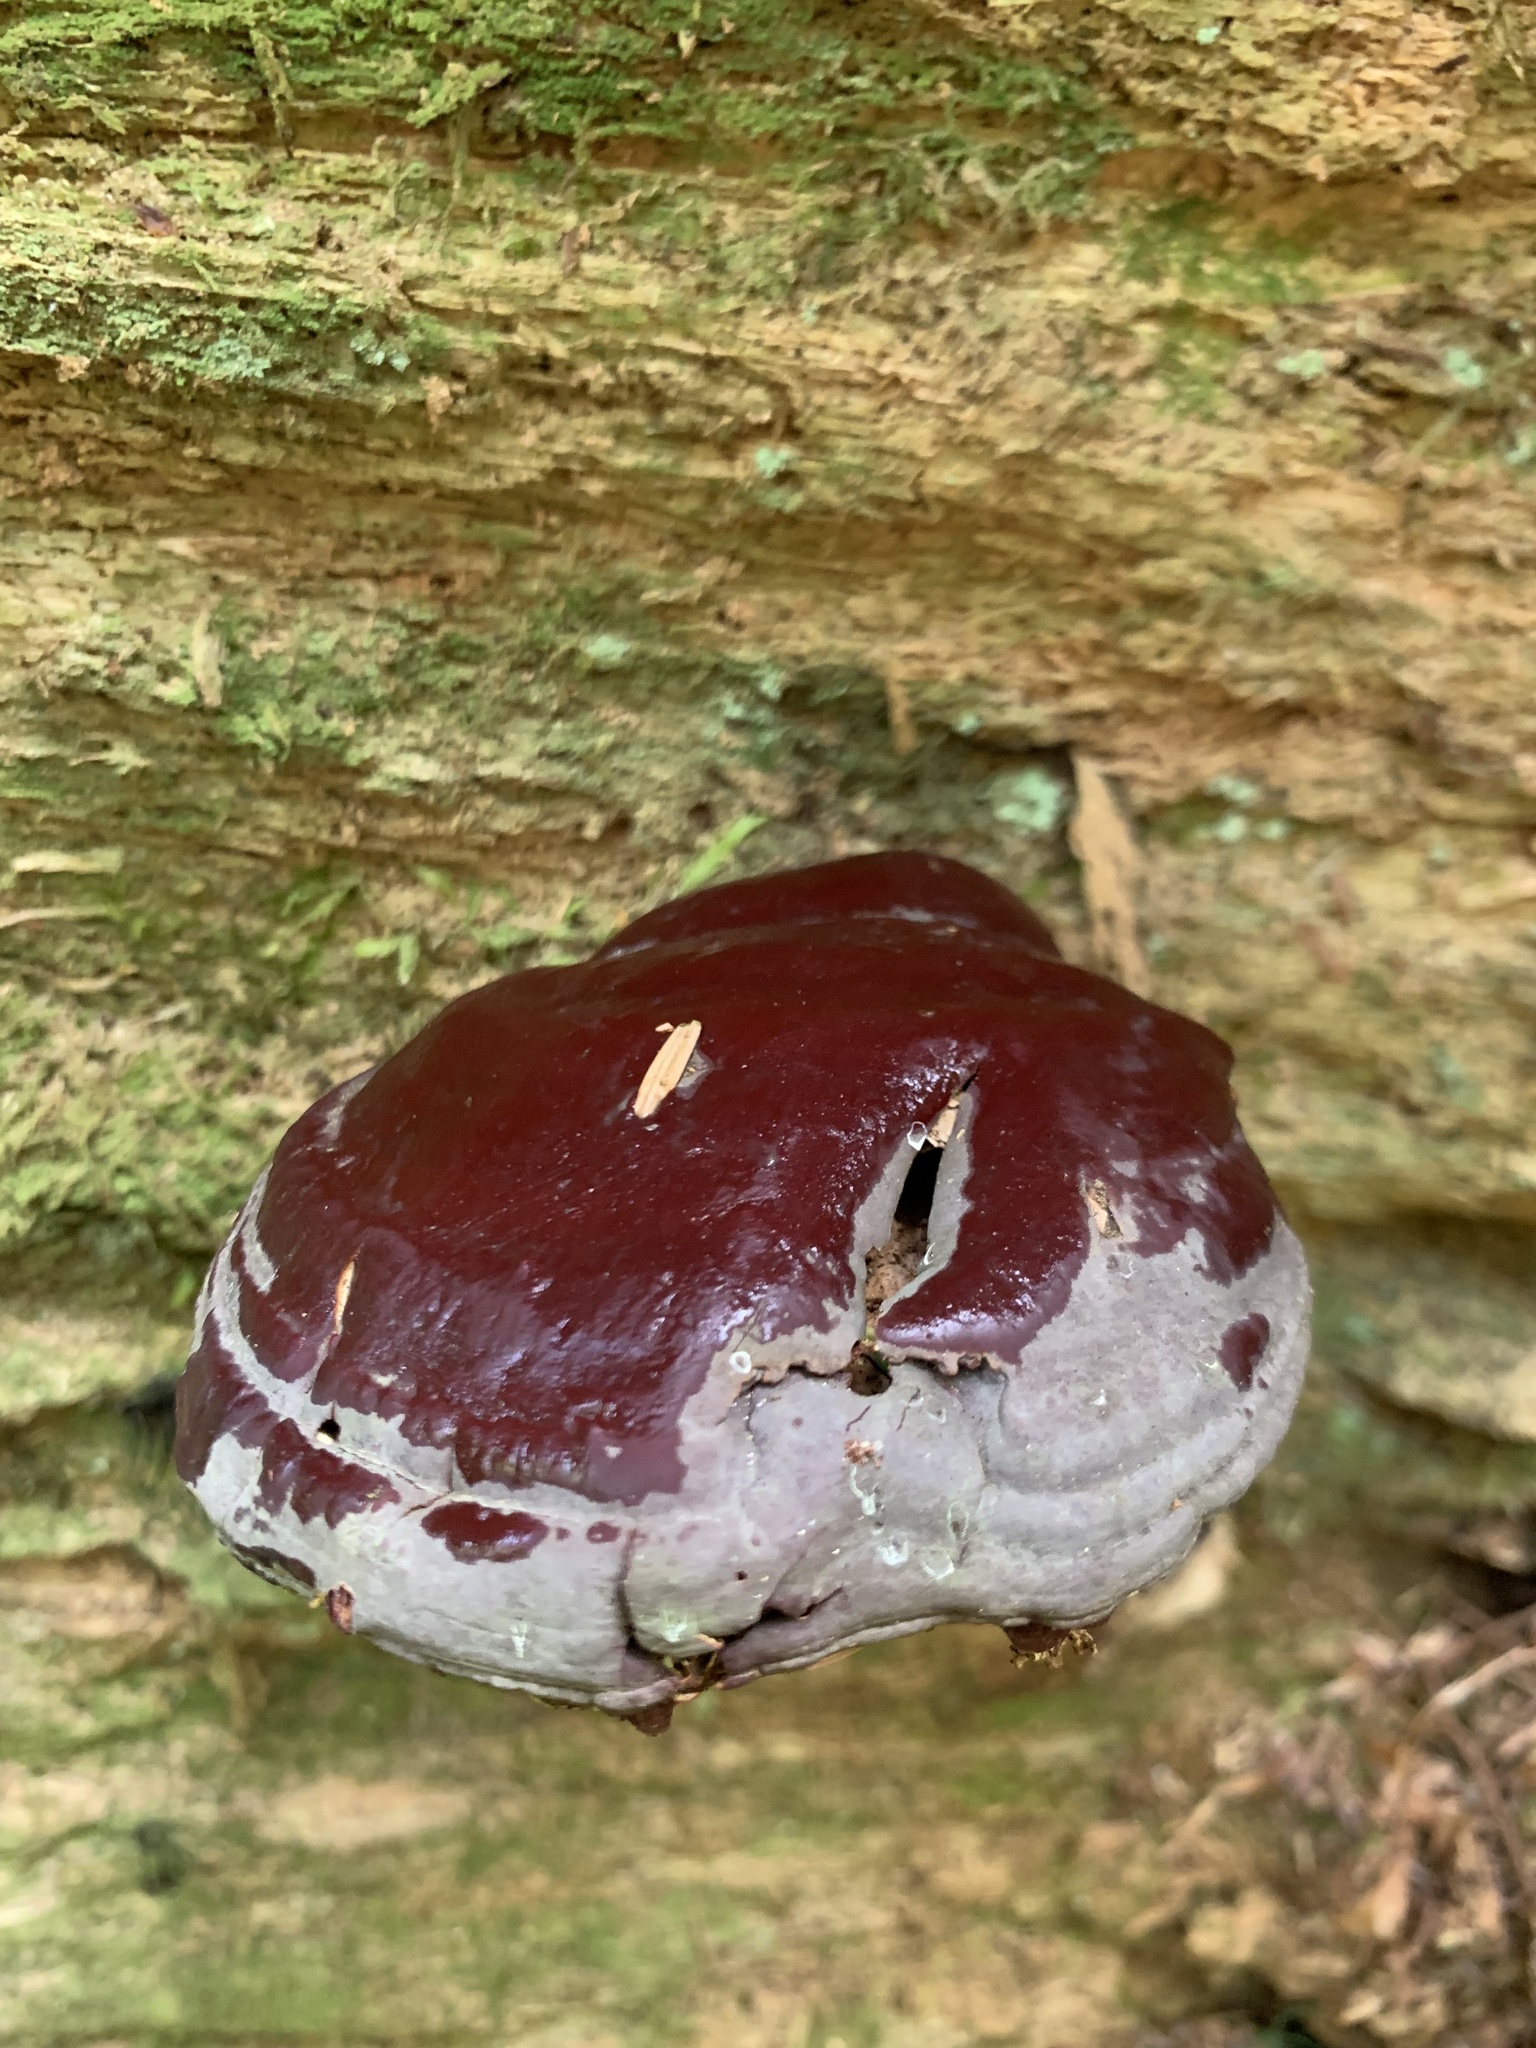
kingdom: Fungi
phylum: Basidiomycota
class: Agaricomycetes
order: Polyporales
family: Polyporaceae
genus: Ganoderma
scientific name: Ganoderma oregonense
